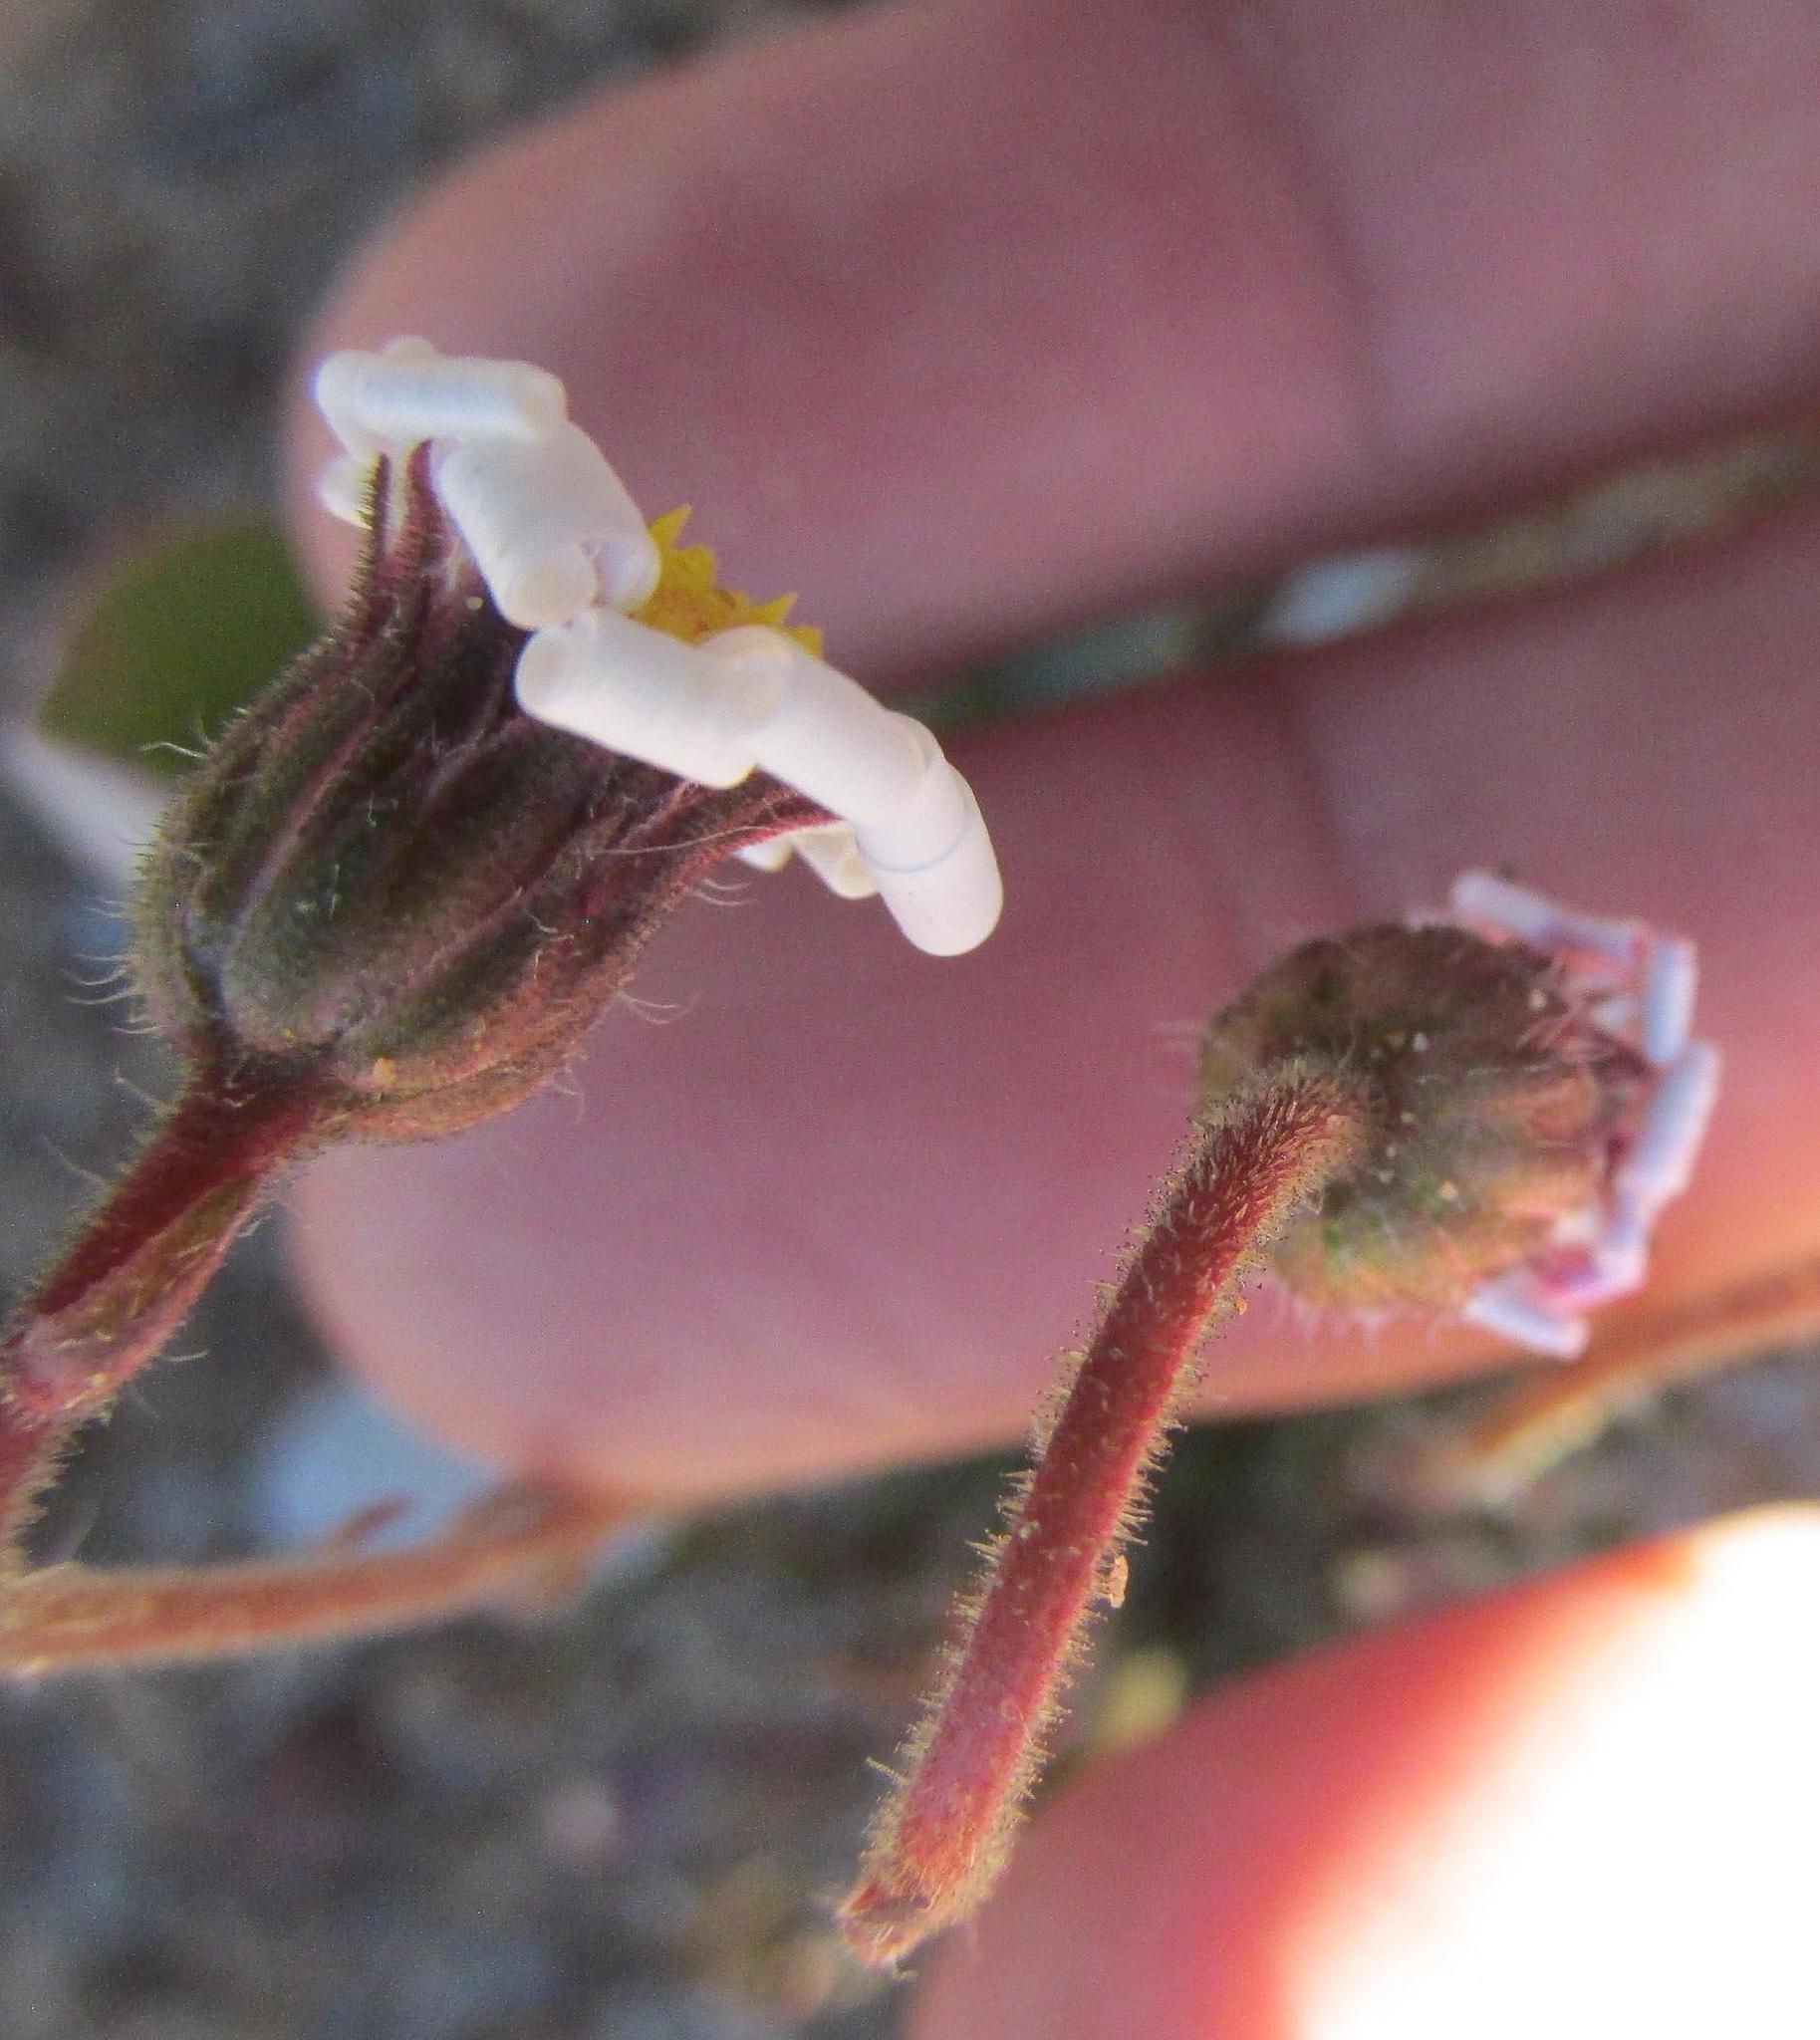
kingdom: Plantae
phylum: Tracheophyta
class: Magnoliopsida
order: Asterales
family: Asteraceae
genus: Felicia
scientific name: Felicia namaquana
